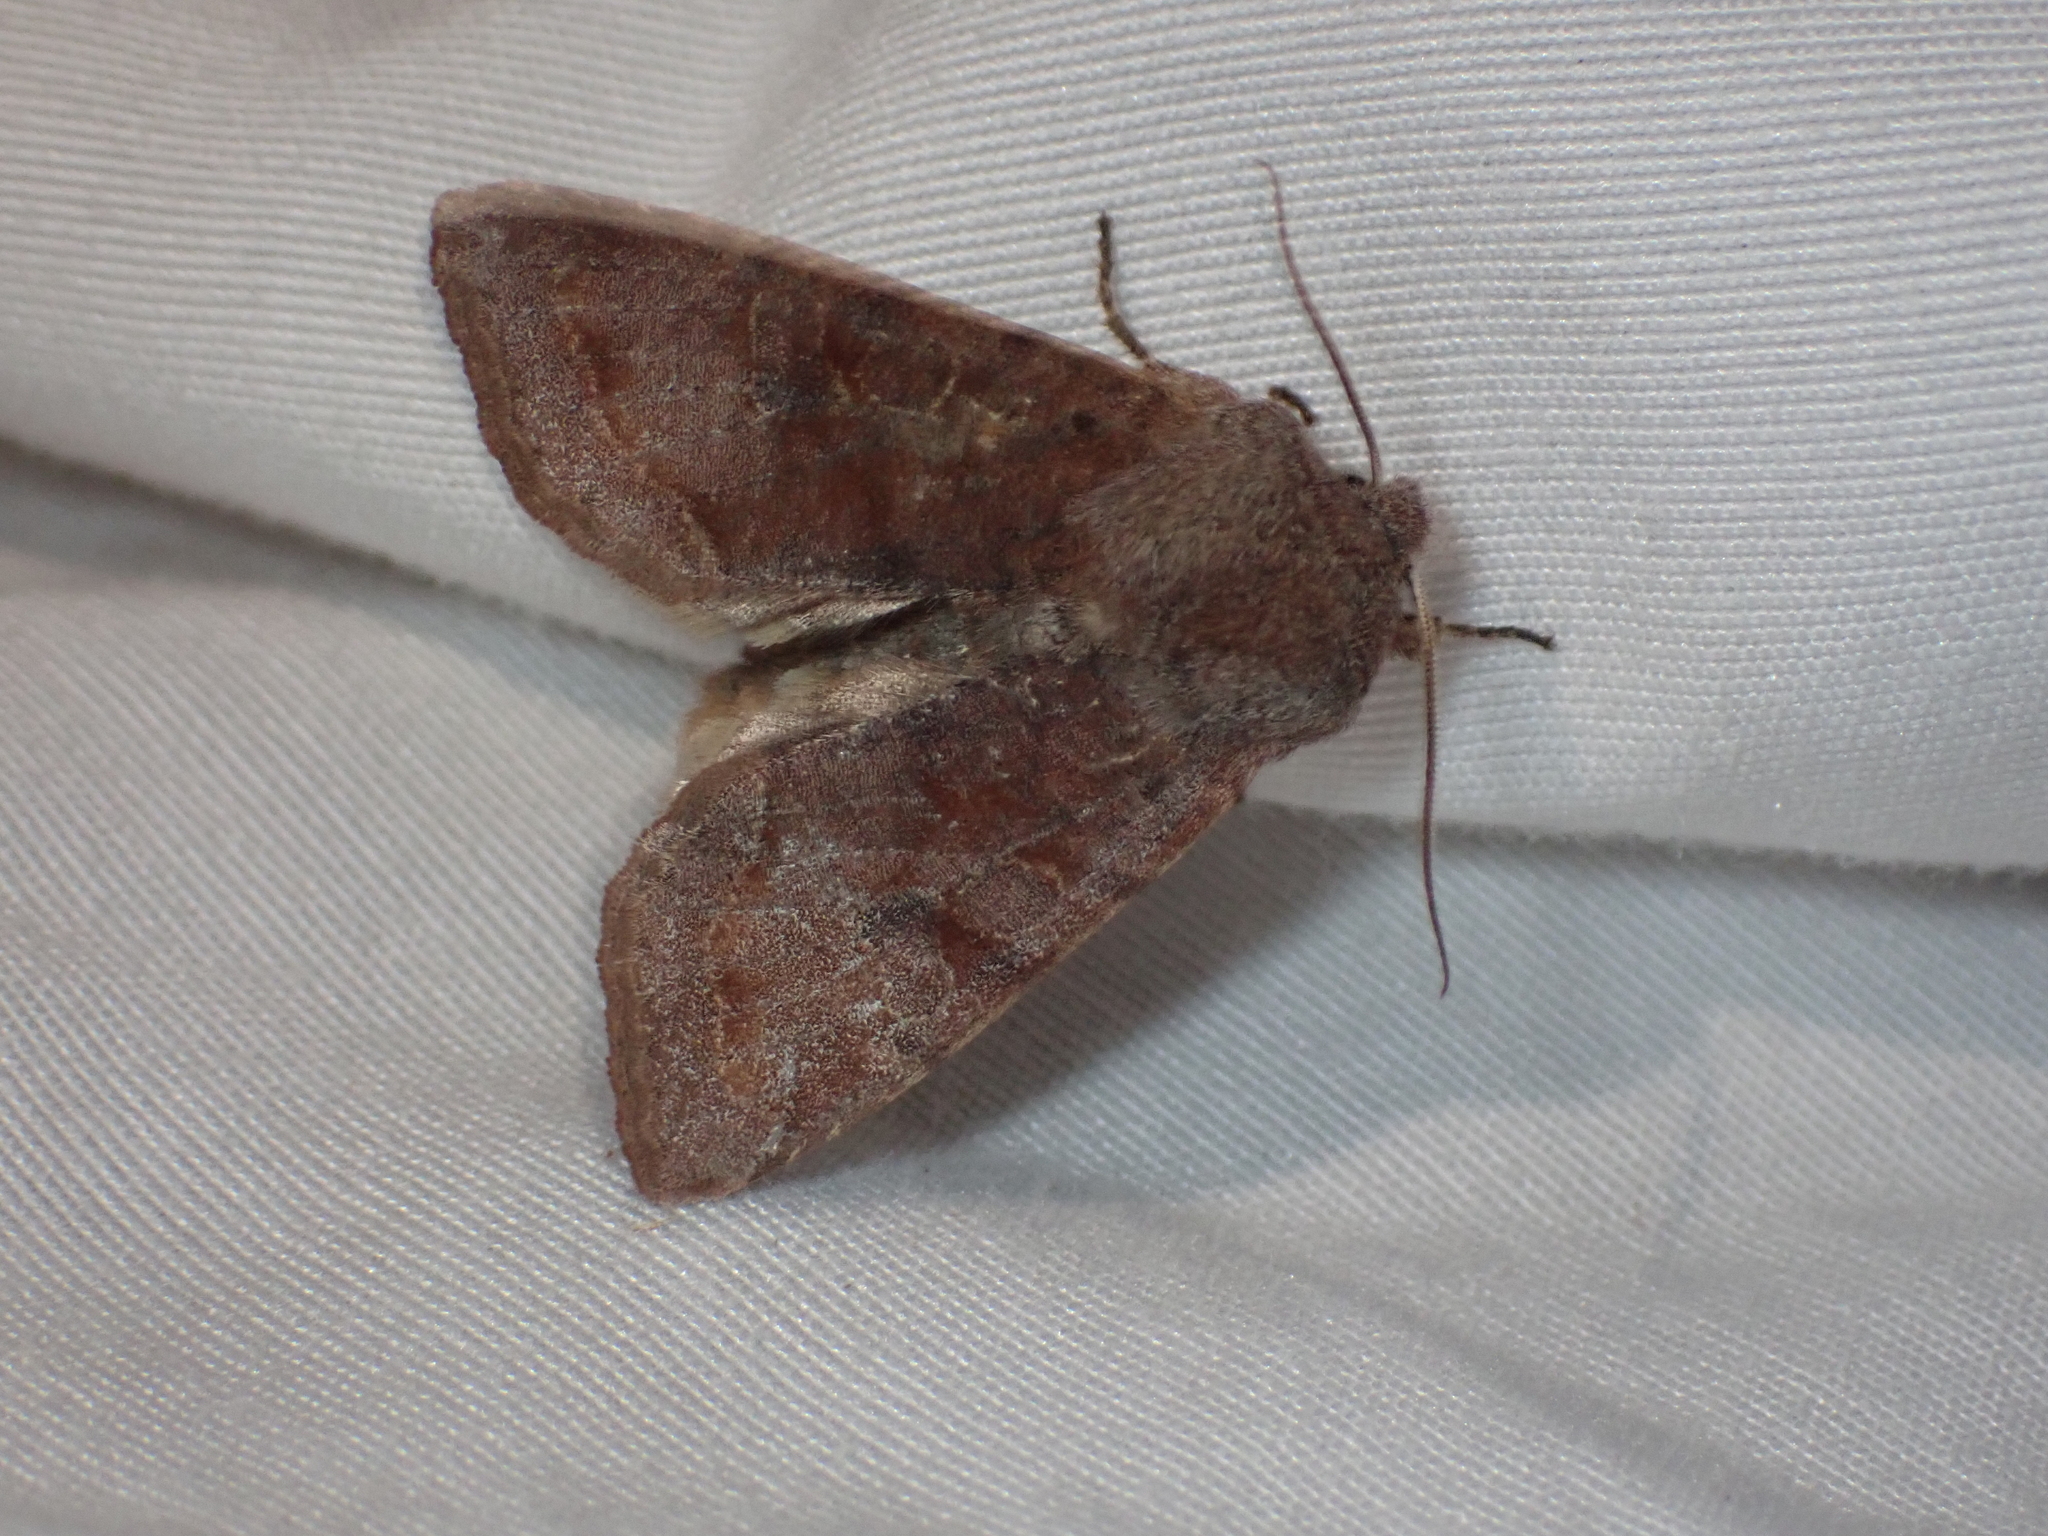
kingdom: Animalia
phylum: Arthropoda
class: Insecta
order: Lepidoptera
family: Noctuidae
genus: Orthosia
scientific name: Orthosia hibisci
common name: Green fruitworm
